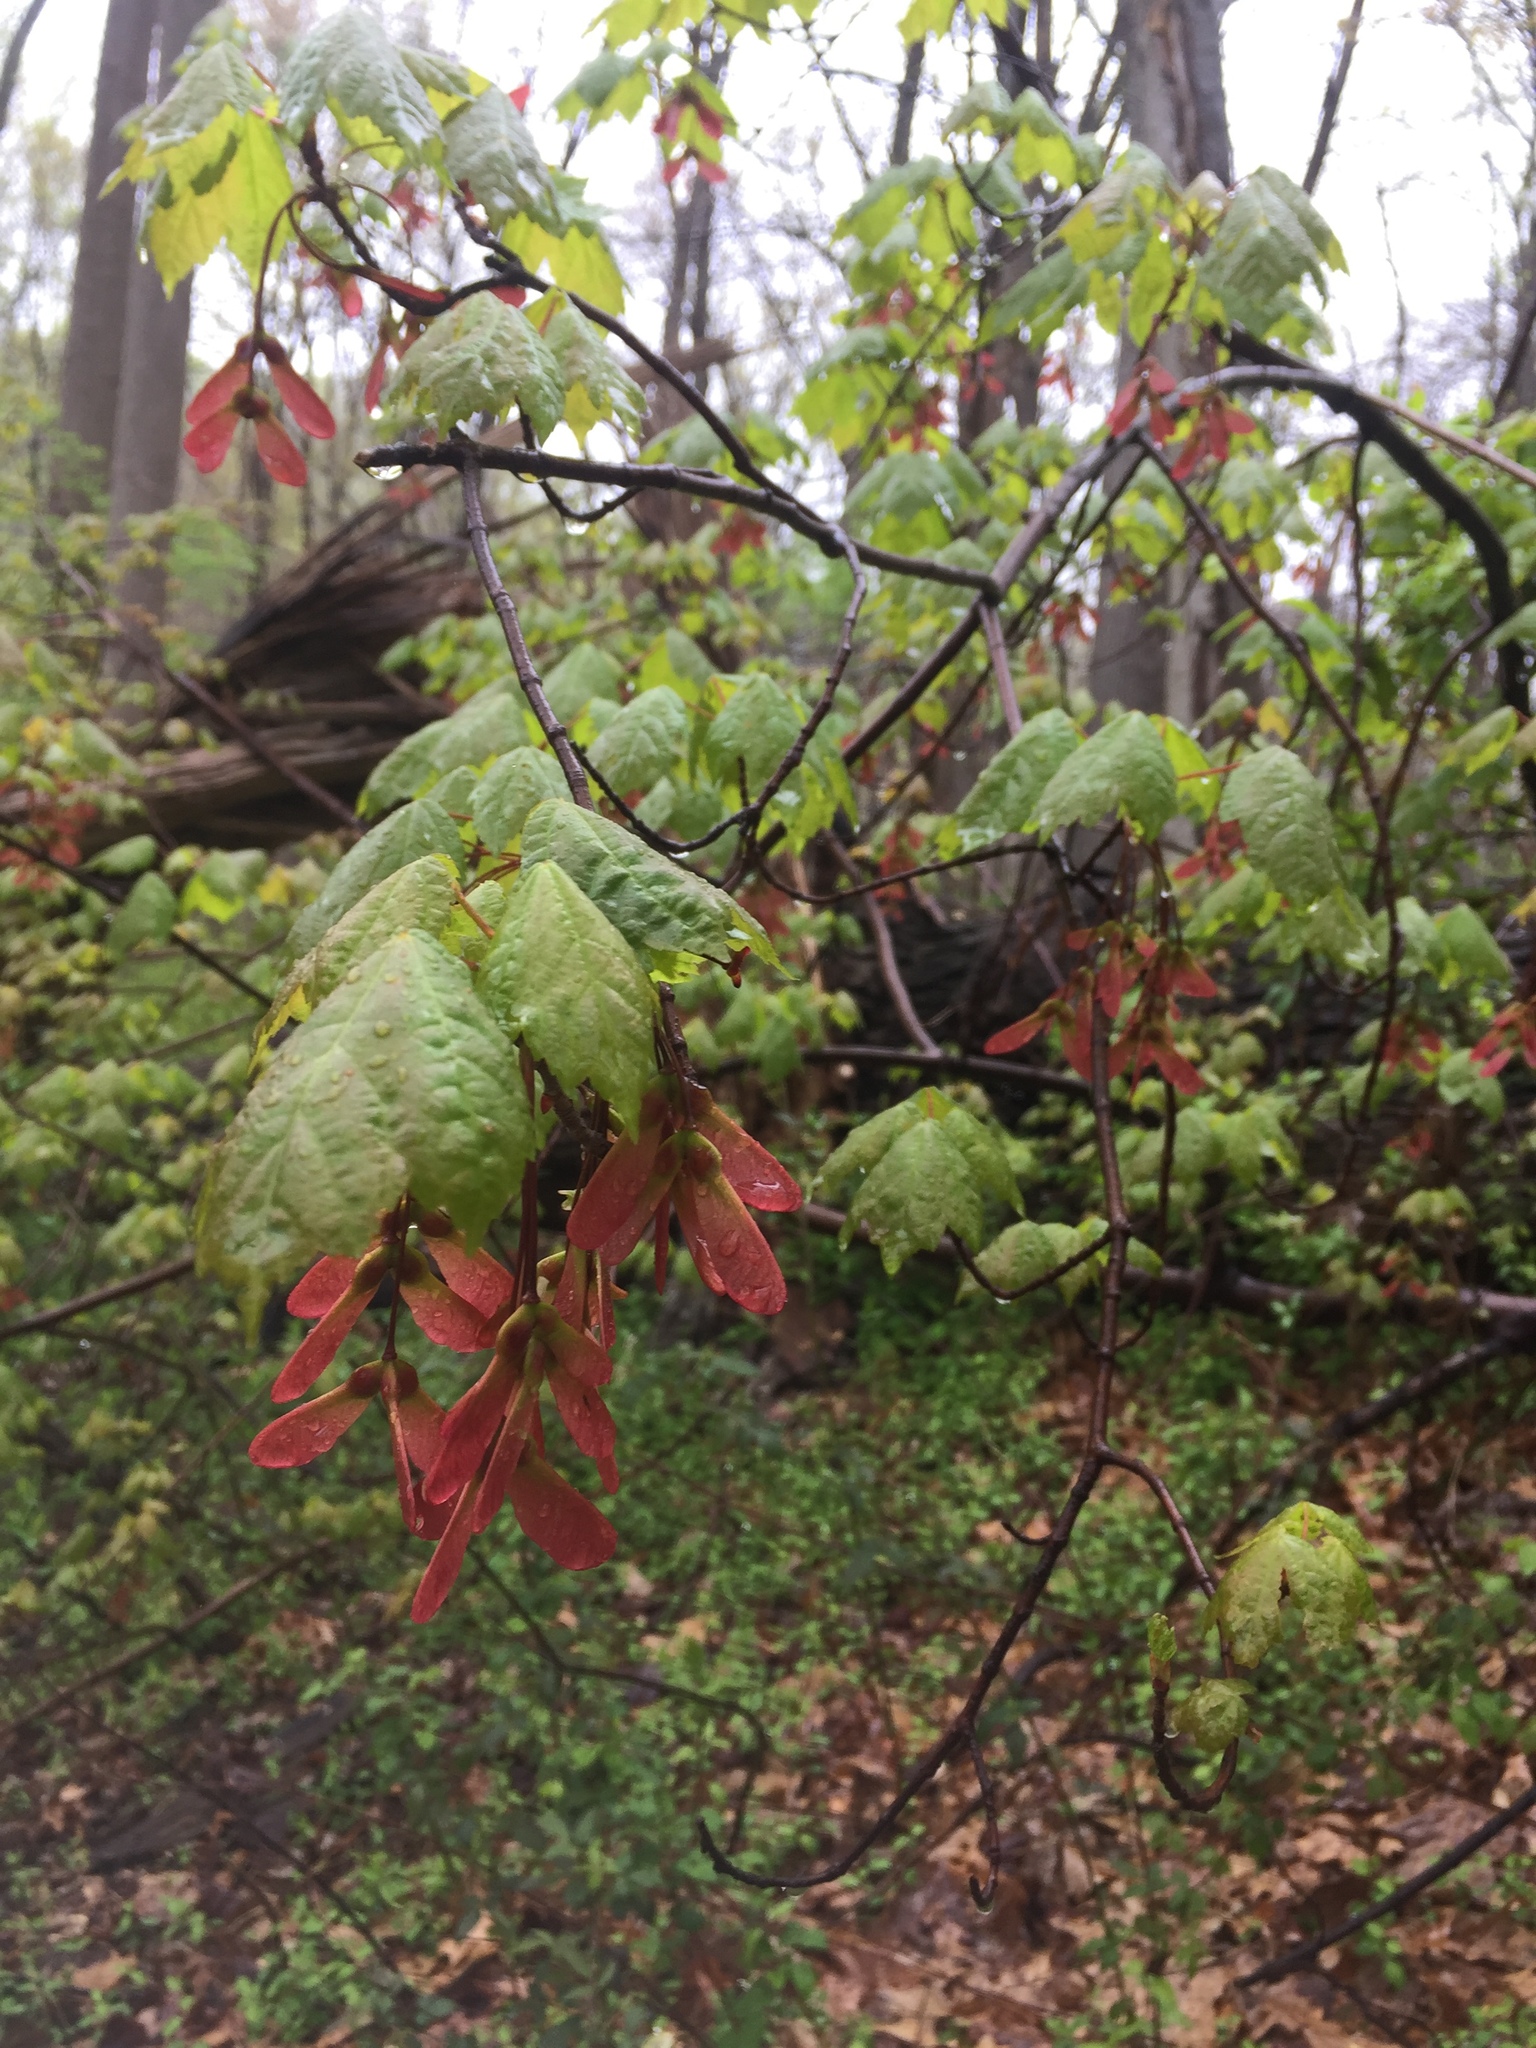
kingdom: Plantae
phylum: Tracheophyta
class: Magnoliopsida
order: Sapindales
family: Sapindaceae
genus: Acer
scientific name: Acer rubrum
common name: Red maple
